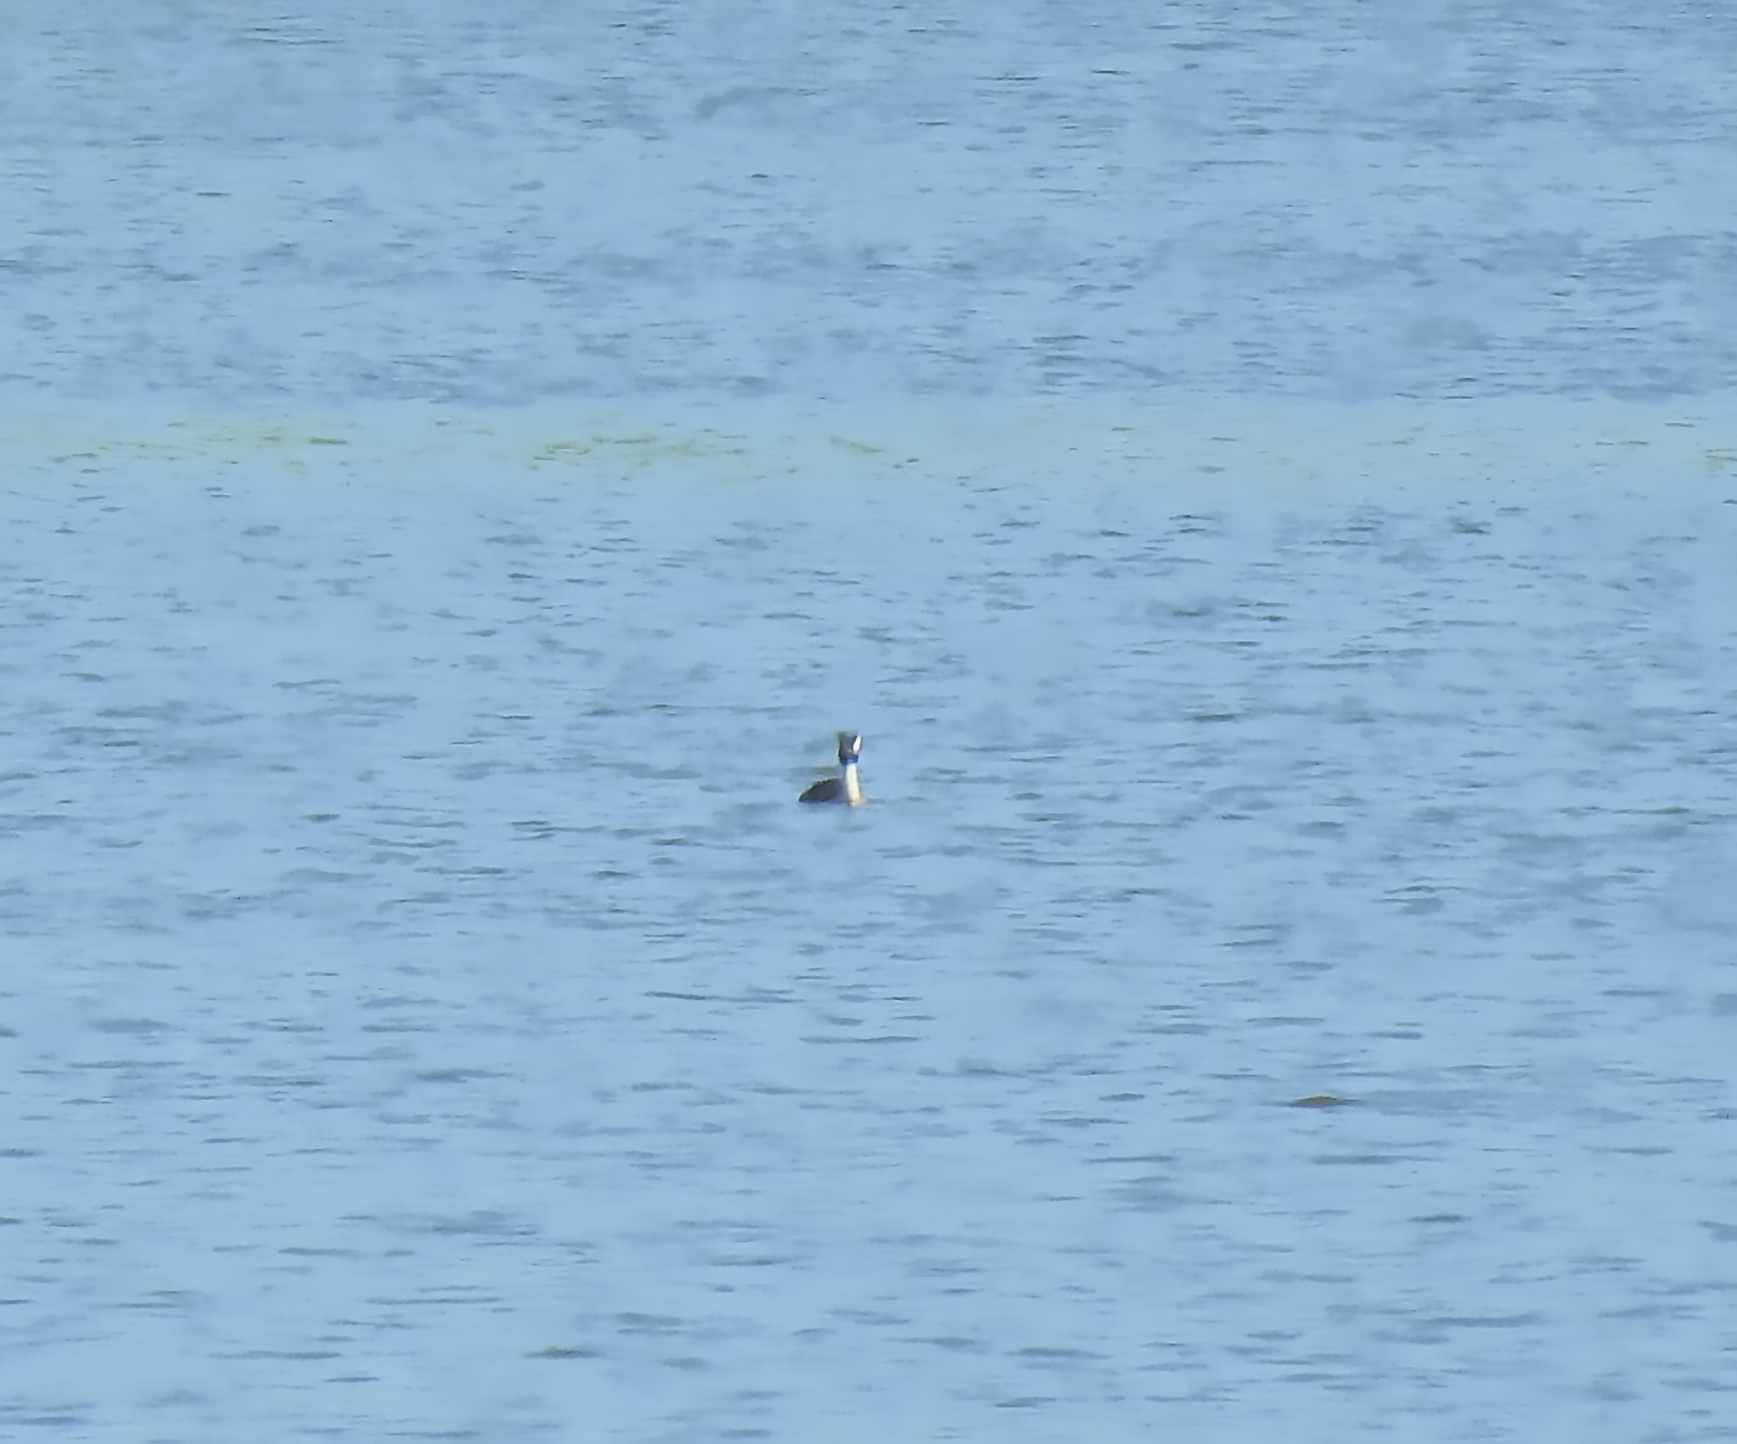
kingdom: Animalia
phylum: Chordata
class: Aves
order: Podicipediformes
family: Podicipedidae
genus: Podiceps
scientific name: Podiceps cristatus
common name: Great crested grebe
